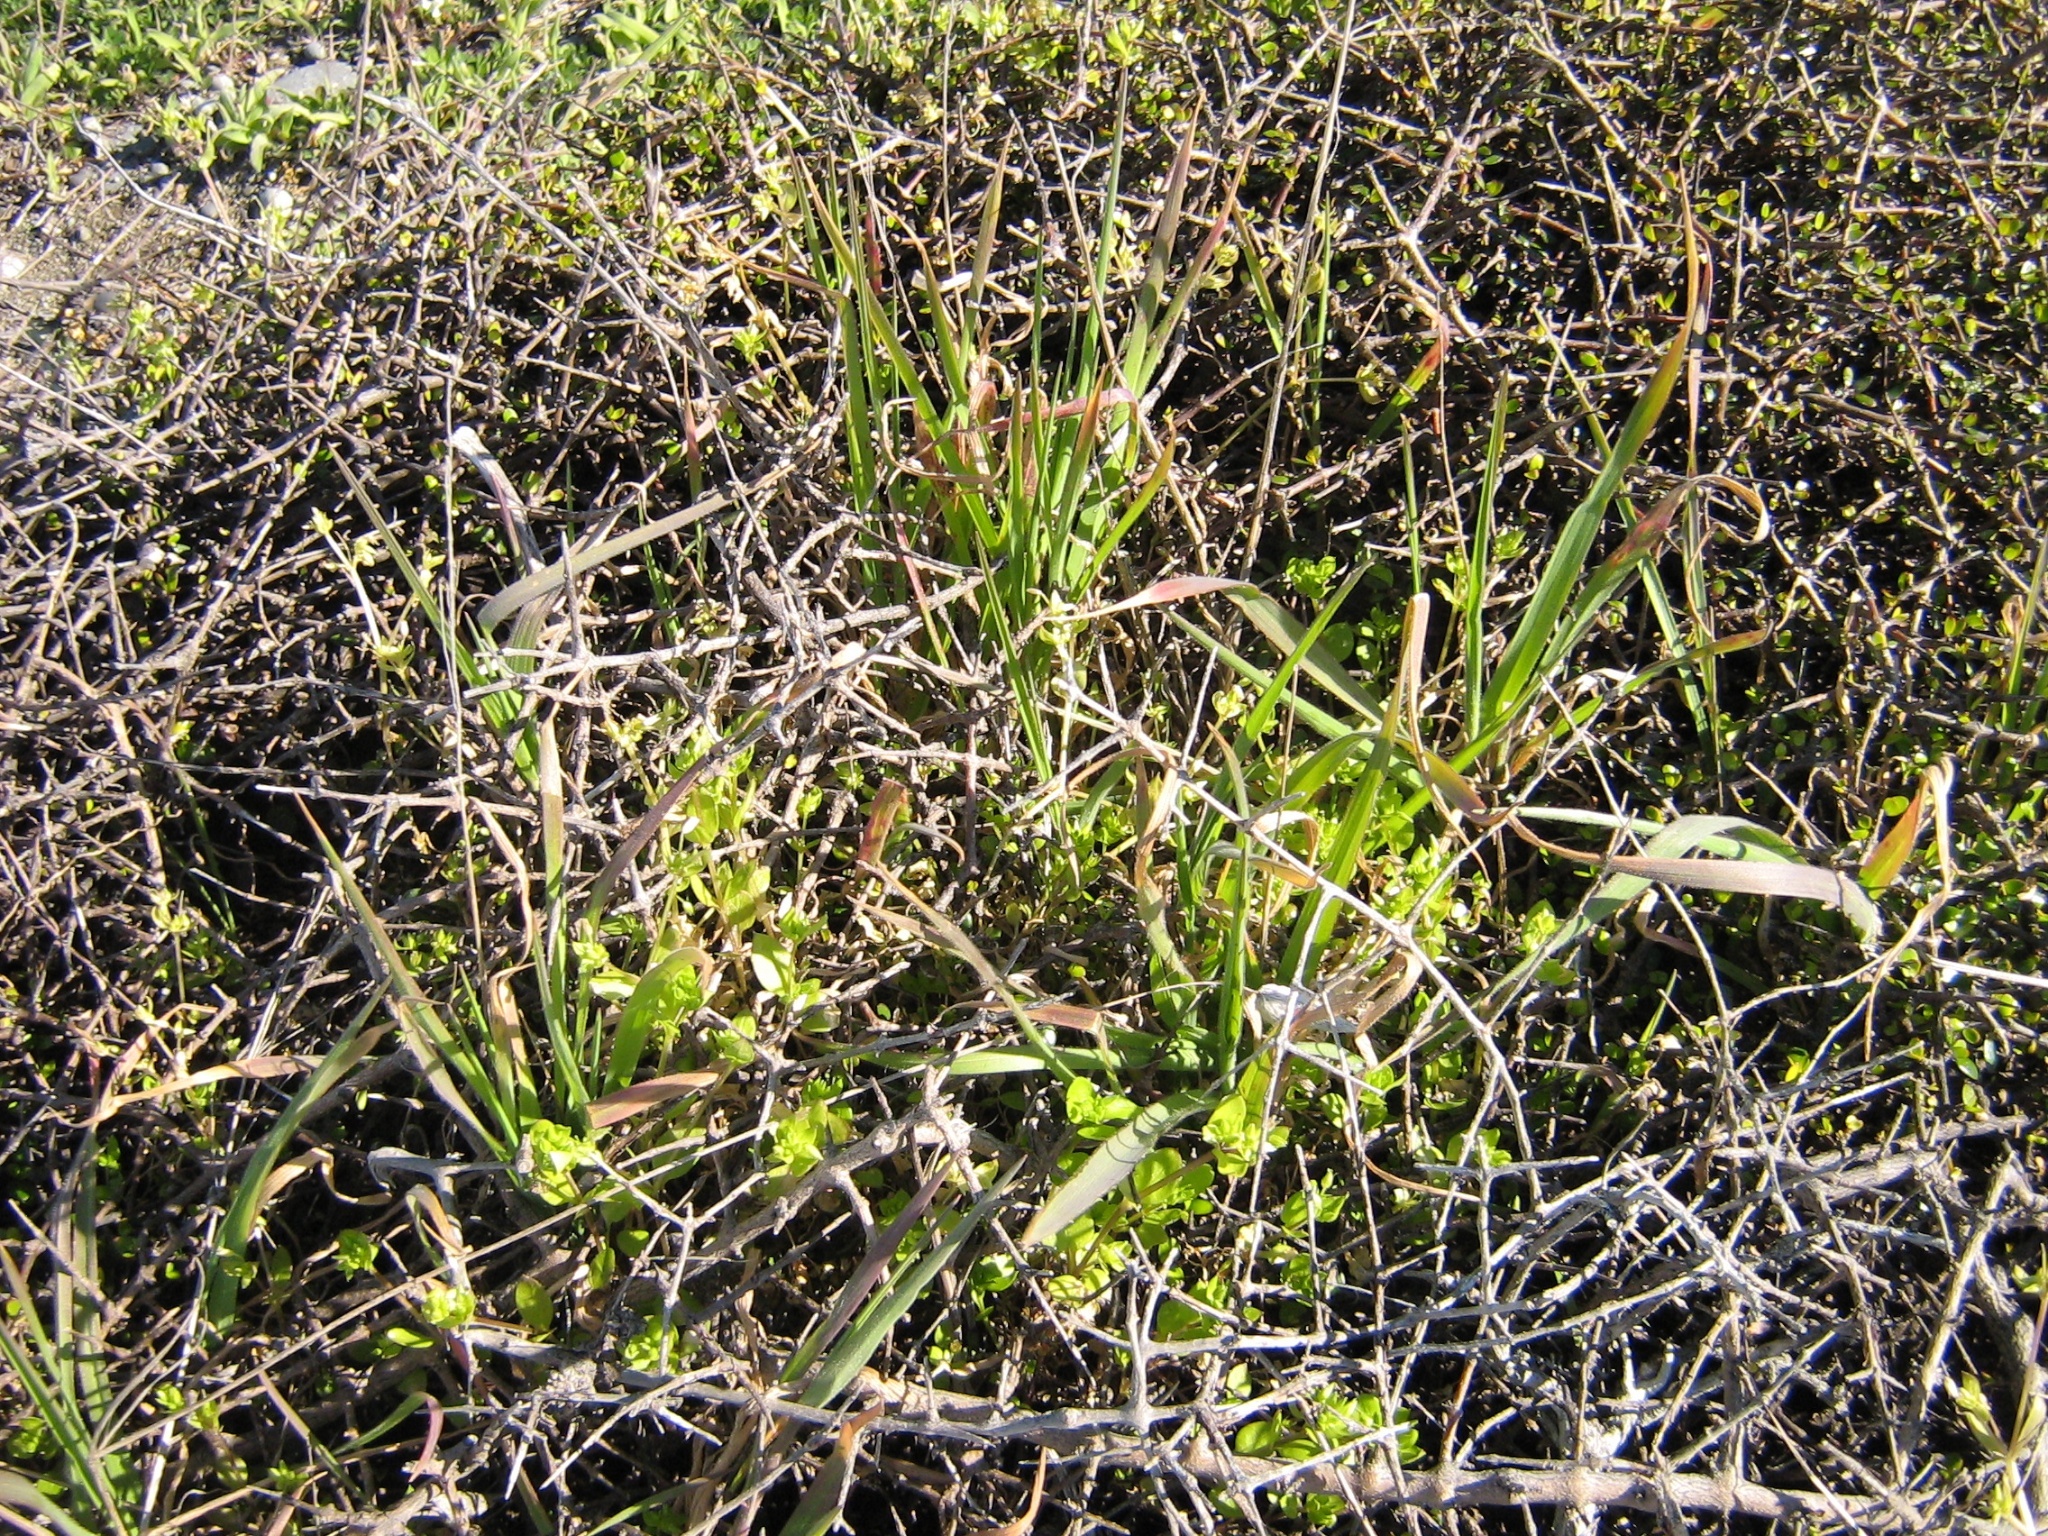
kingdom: Plantae
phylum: Tracheophyta
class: Magnoliopsida
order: Gentianales
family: Rubiaceae
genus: Coprosma
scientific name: Coprosma propinqua
